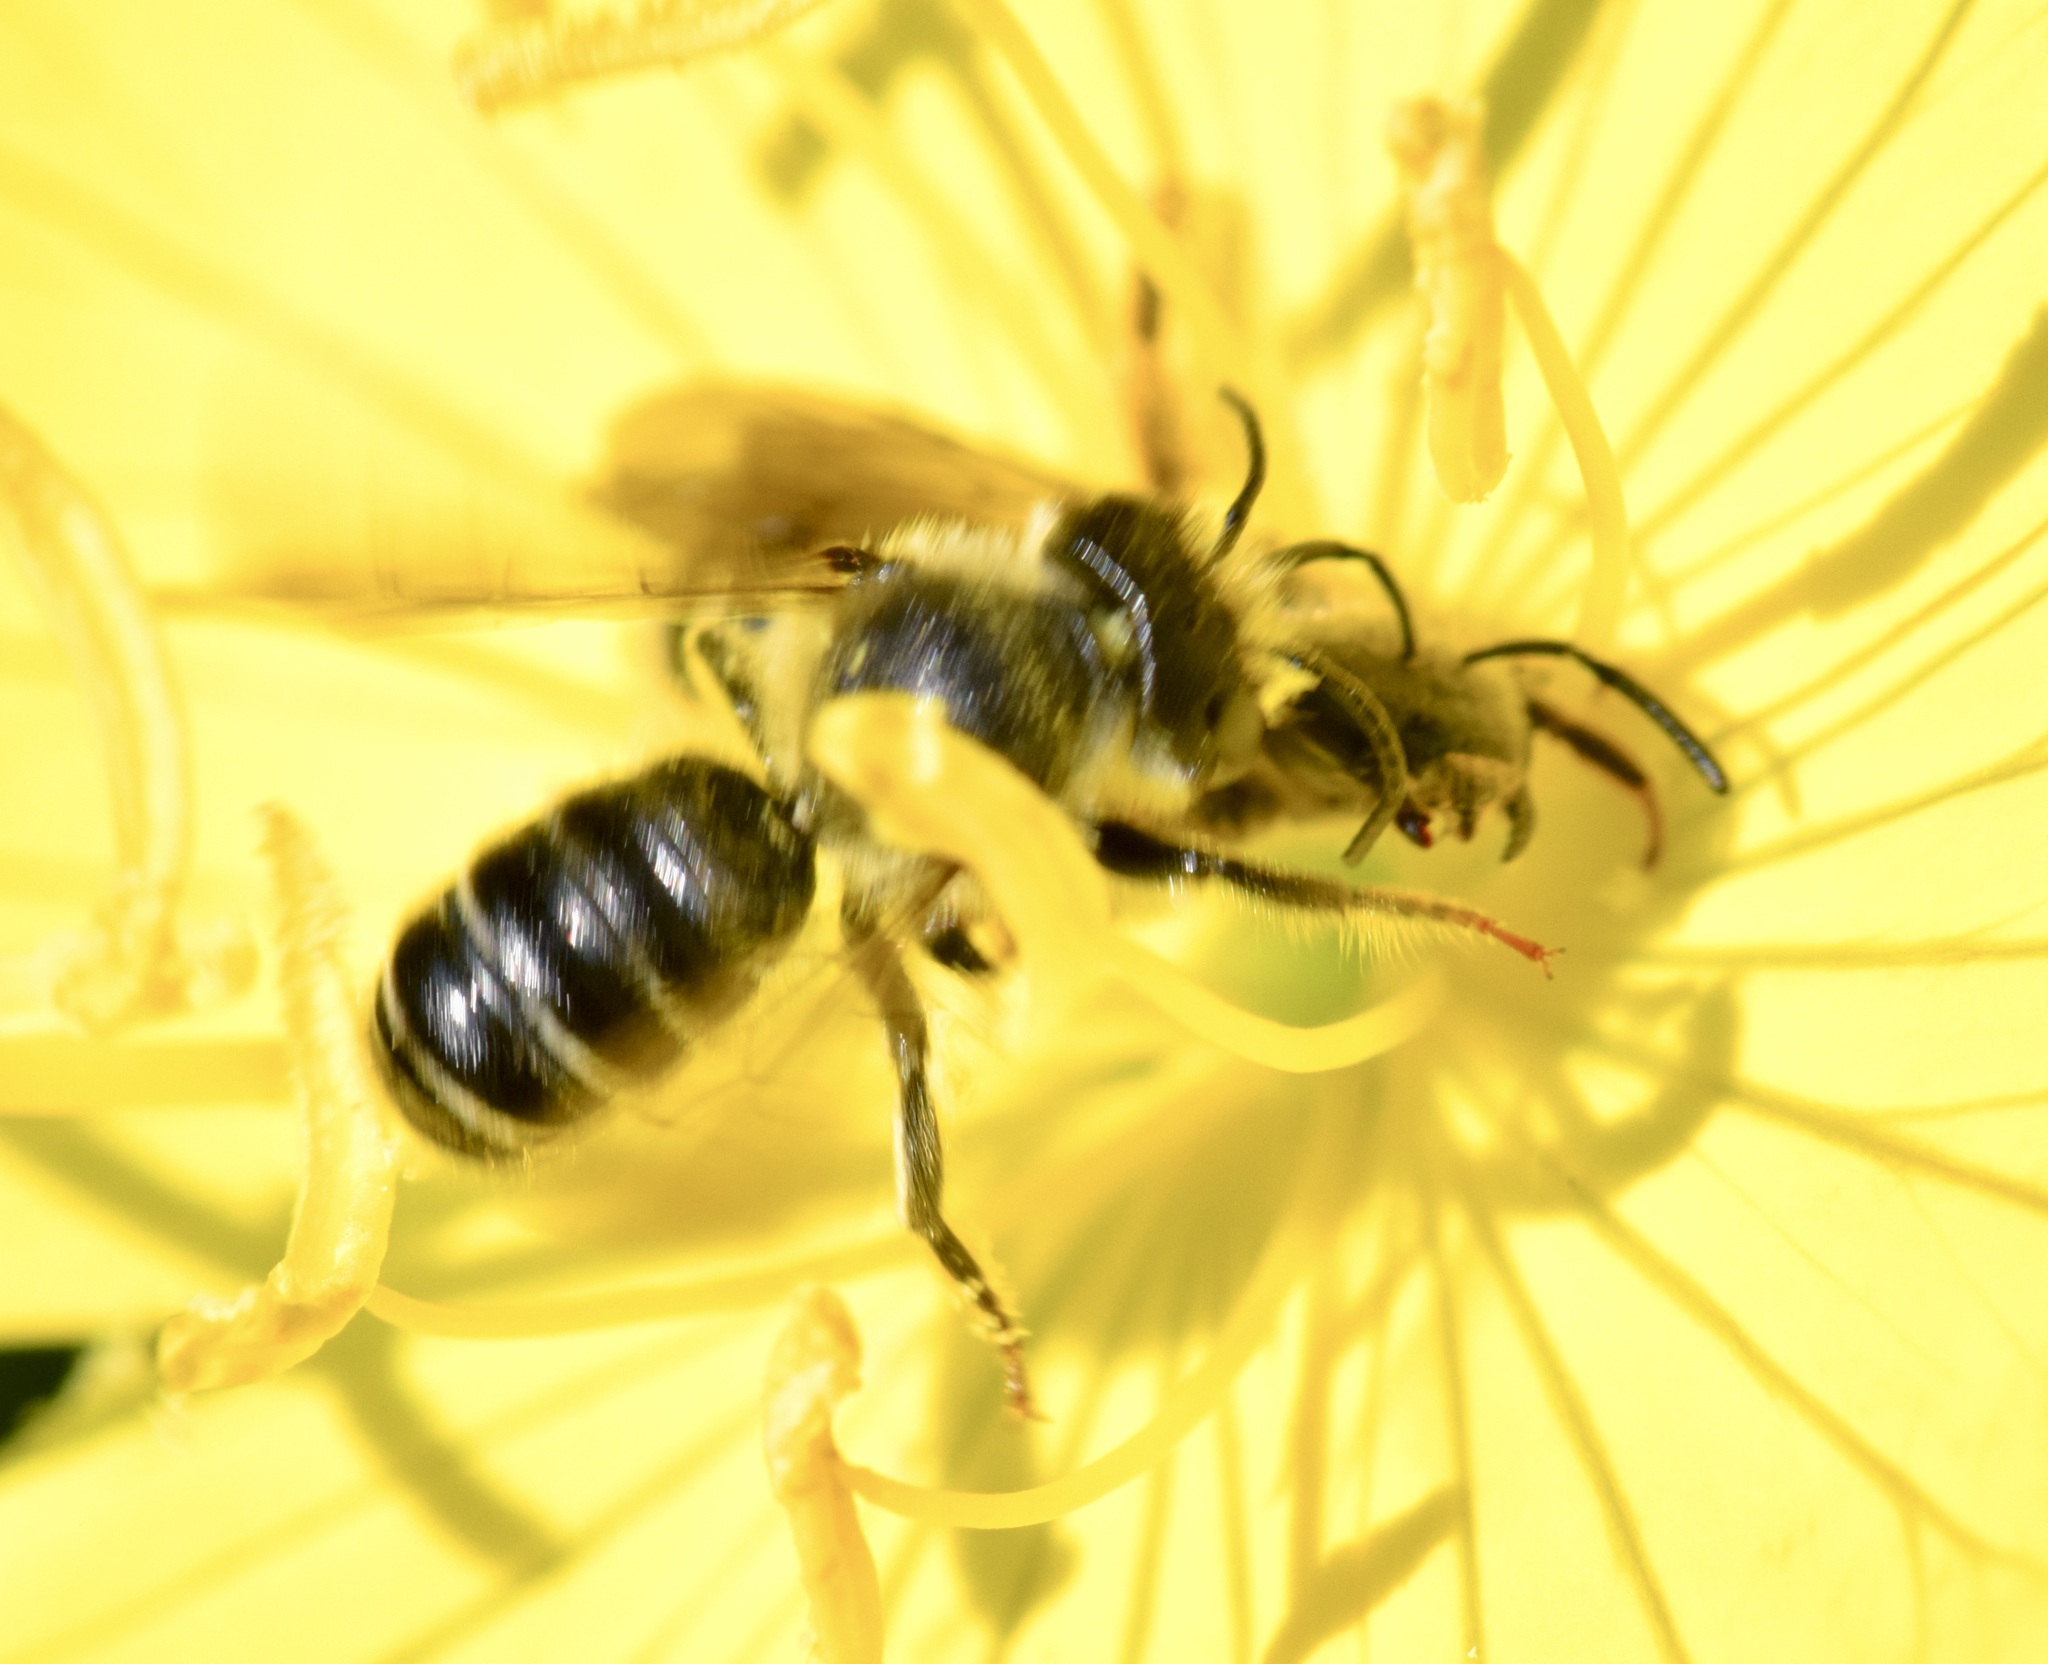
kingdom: Animalia
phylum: Arthropoda
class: Insecta
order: Hymenoptera
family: Halictidae
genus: Halictus
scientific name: Halictus rubicundus
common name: Orange-legged furrow bee
